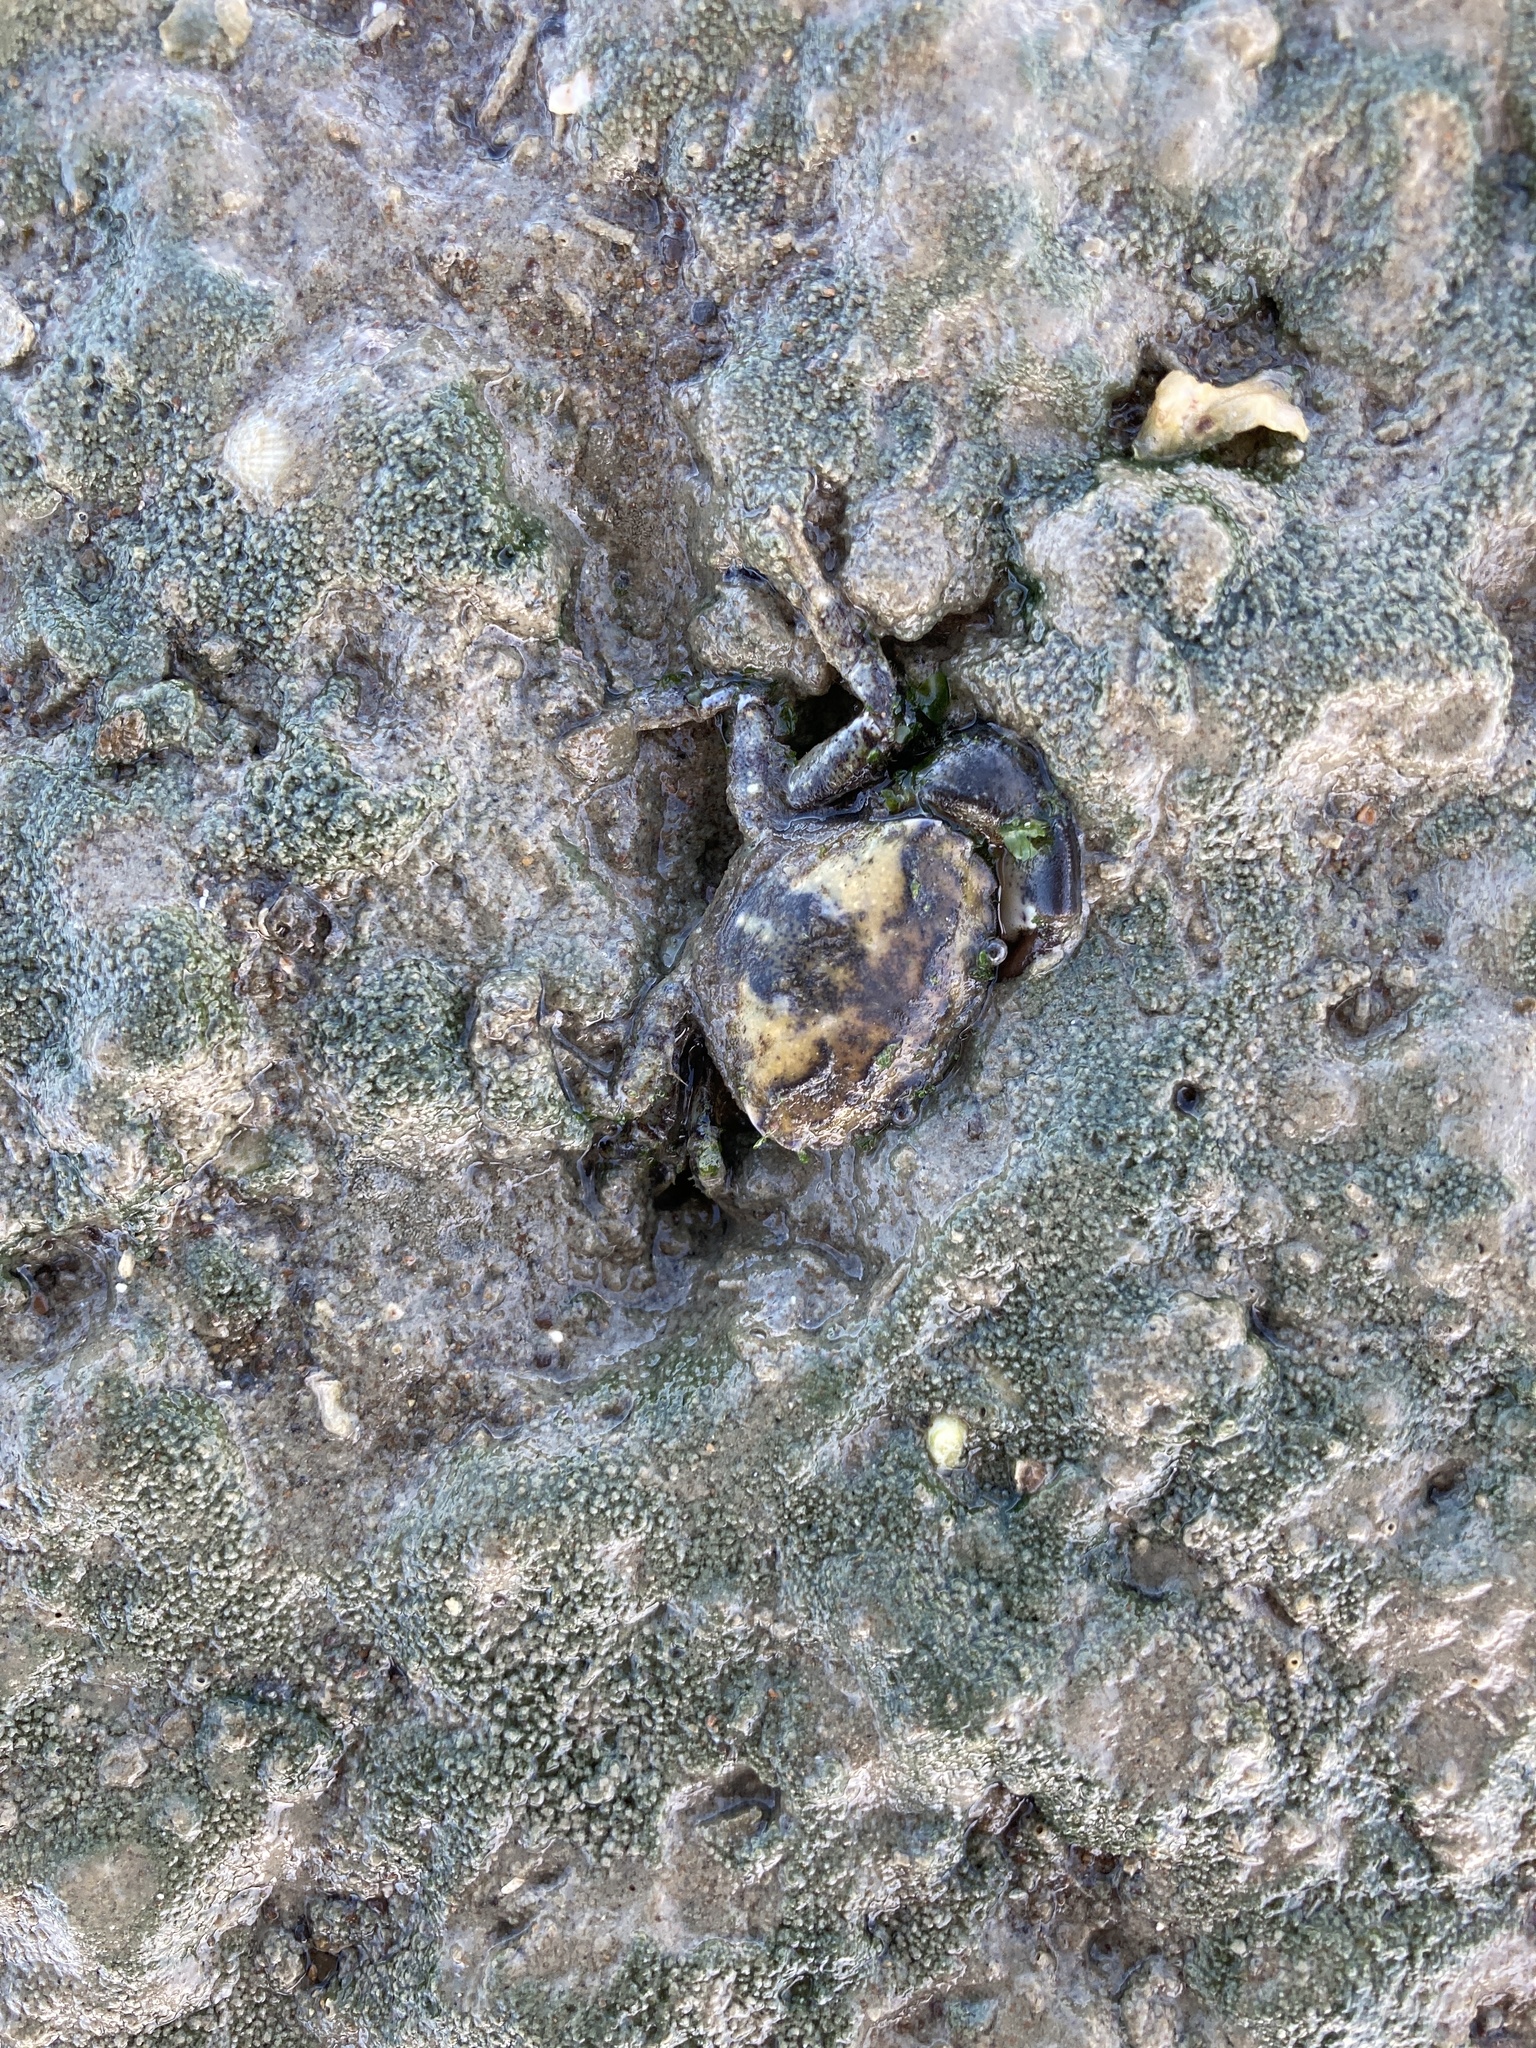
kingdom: Animalia
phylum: Arthropoda
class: Malacostraca
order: Decapoda
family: Pilumnidae
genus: Pilumnopeus
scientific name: Pilumnopeus serratifrons
